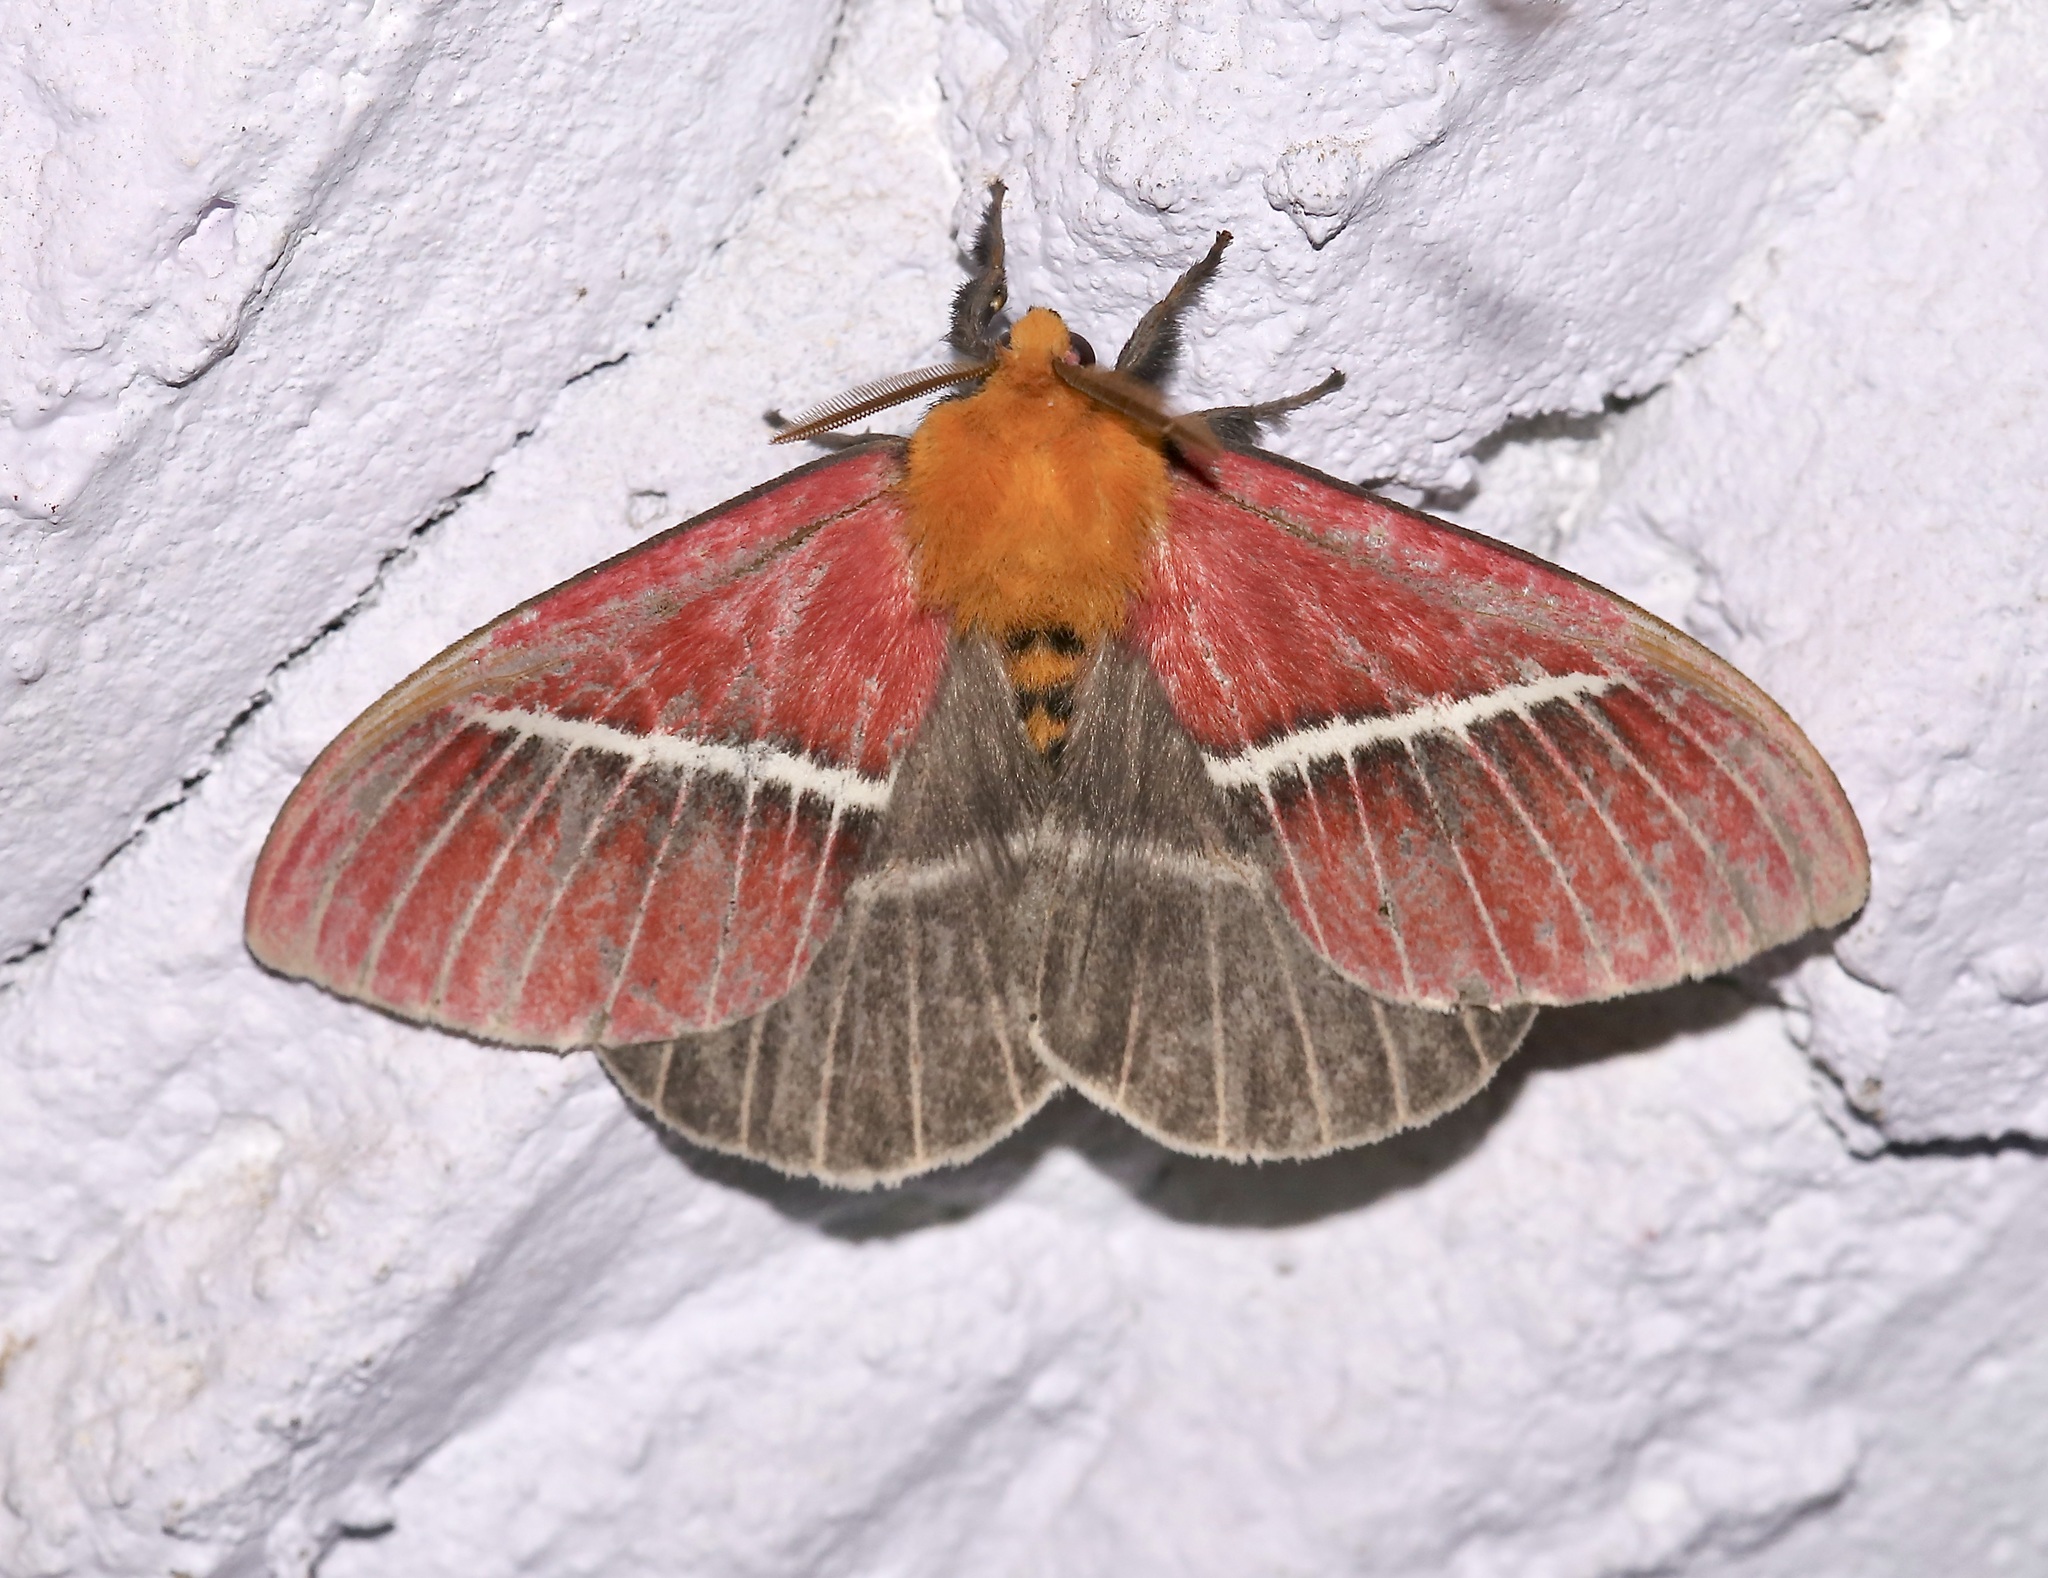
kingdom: Animalia
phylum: Arthropoda
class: Insecta
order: Lepidoptera
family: Saturniidae
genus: Pseudodirphia
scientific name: Pseudodirphia menander
